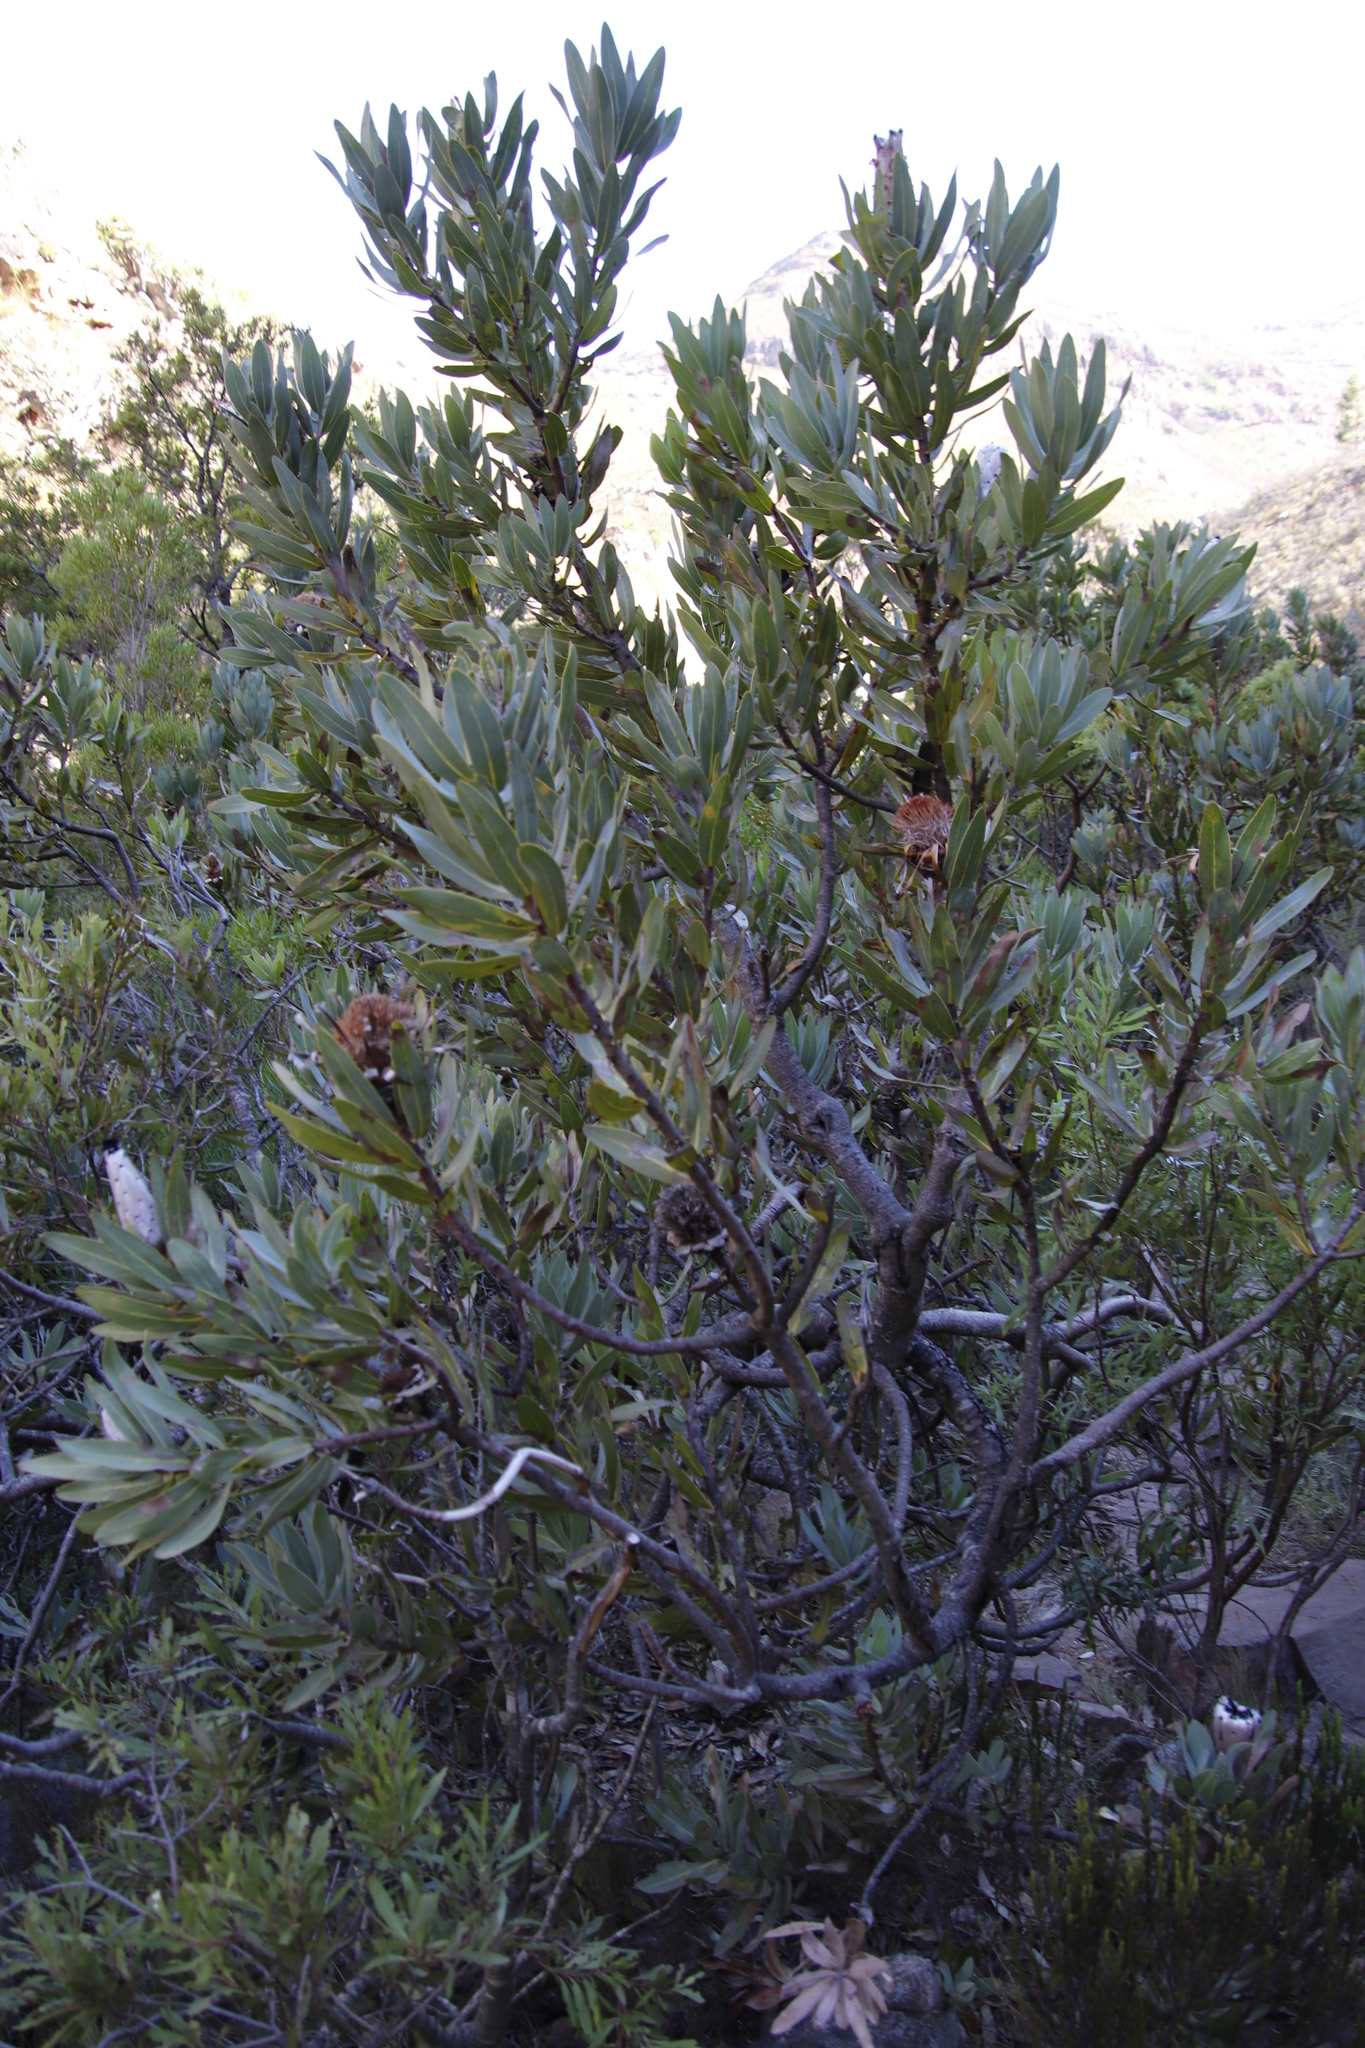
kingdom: Plantae
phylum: Tracheophyta
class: Magnoliopsida
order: Proteales
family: Proteaceae
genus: Protea
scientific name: Protea laurifolia
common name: Grey-leaf sugarbsh
